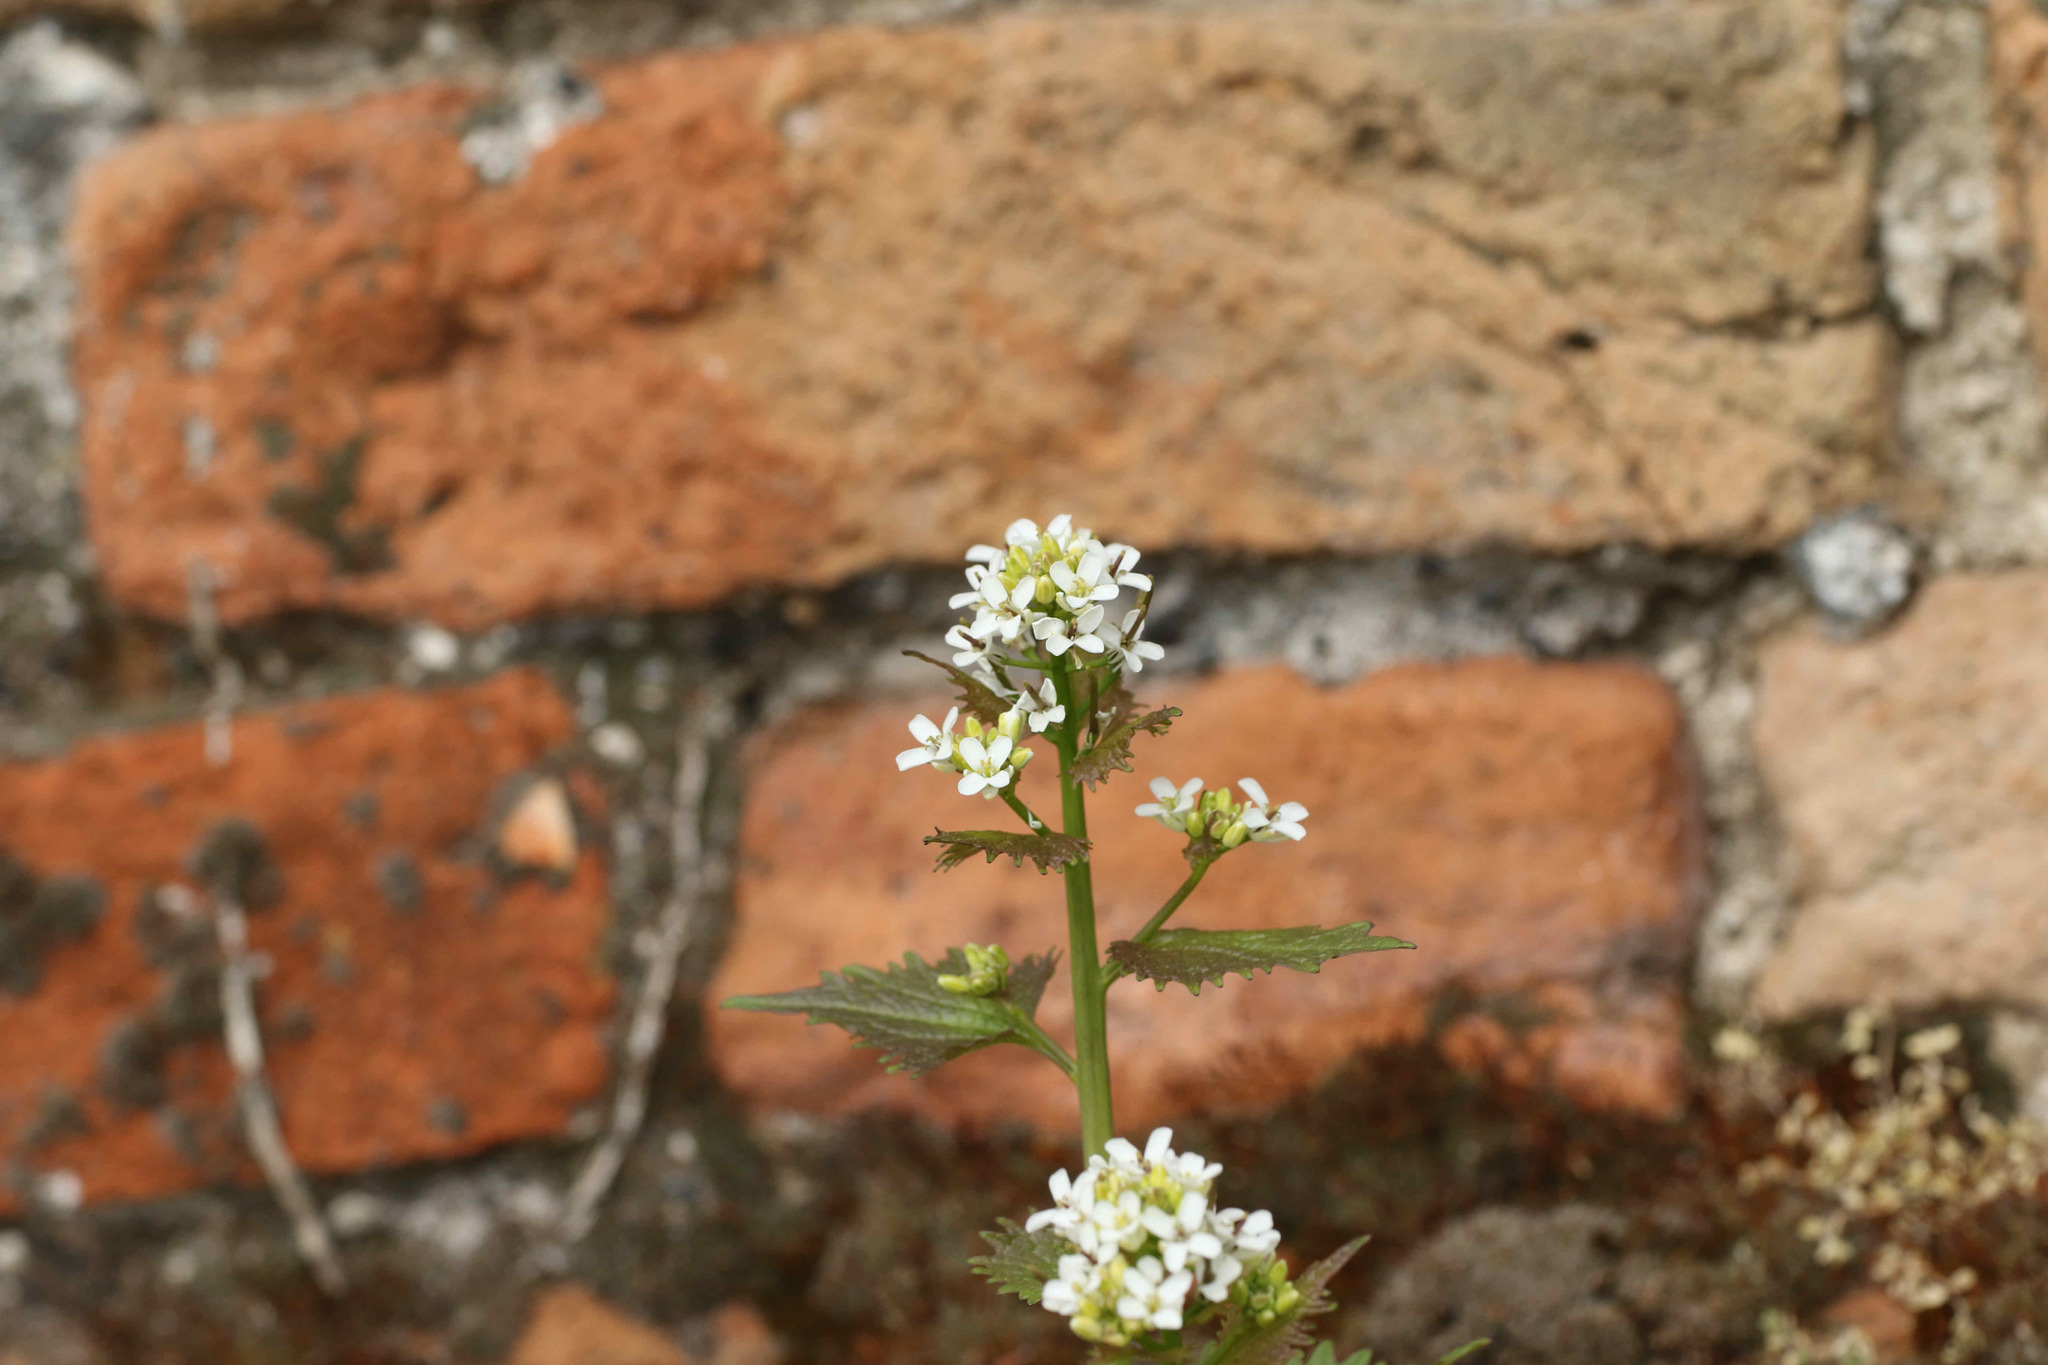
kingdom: Plantae
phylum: Tracheophyta
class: Magnoliopsida
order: Brassicales
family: Brassicaceae
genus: Alliaria
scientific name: Alliaria petiolata
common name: Garlic mustard
